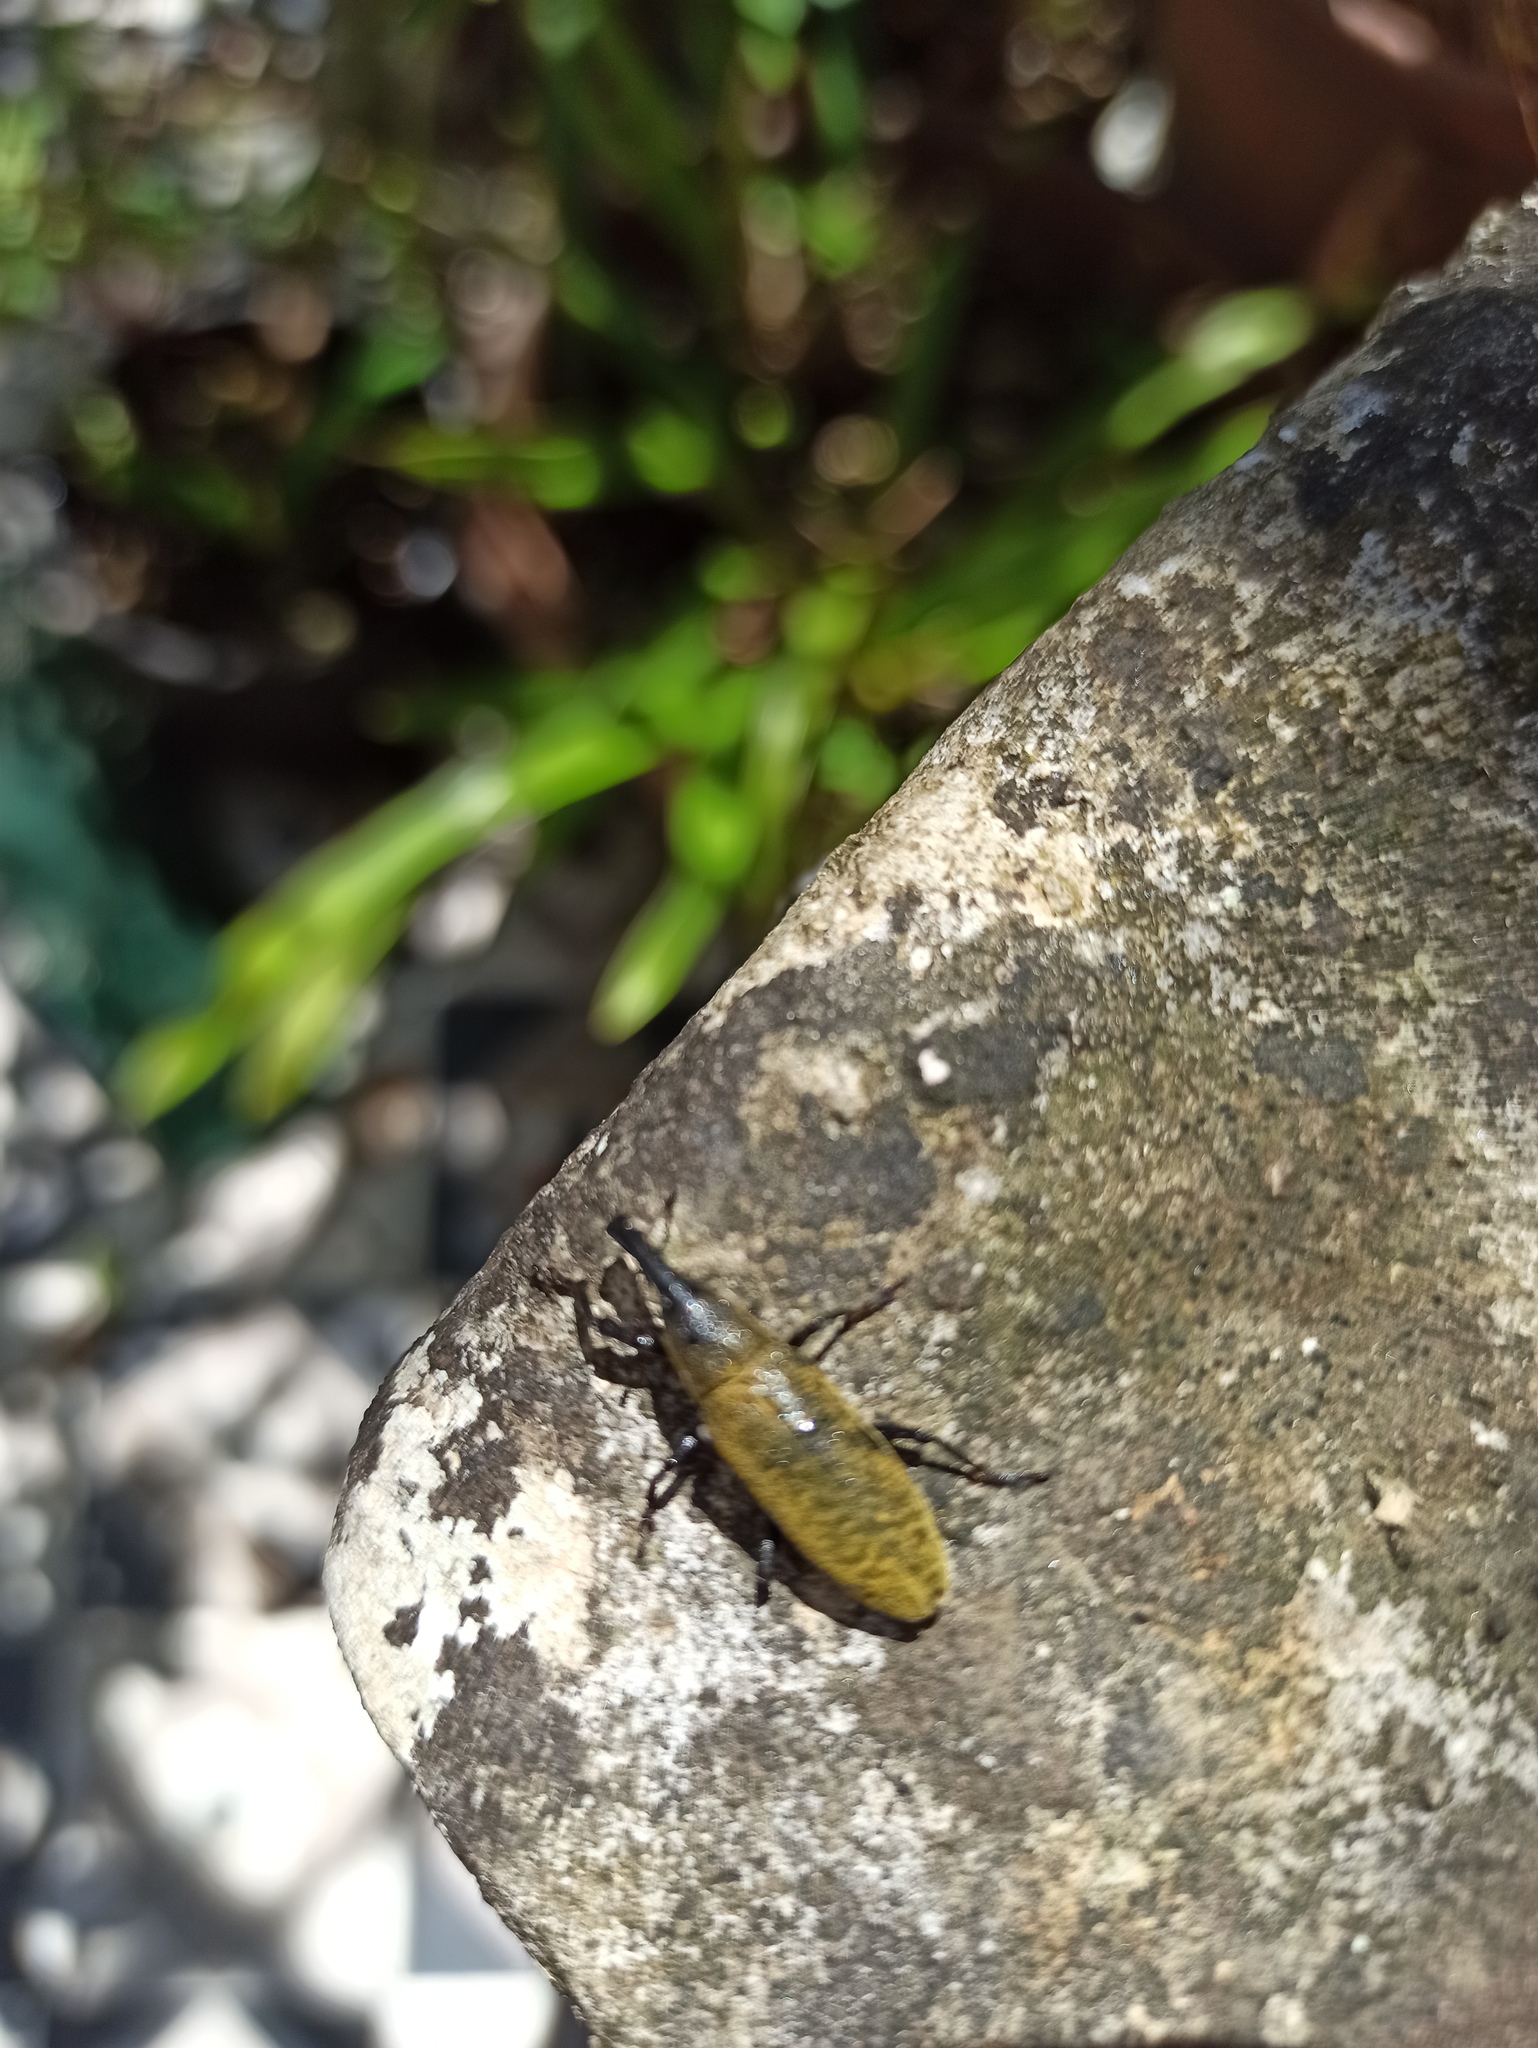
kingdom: Animalia
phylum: Arthropoda
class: Insecta
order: Coleoptera
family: Curculionidae
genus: Lixus
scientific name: Lixus pulverulentus
